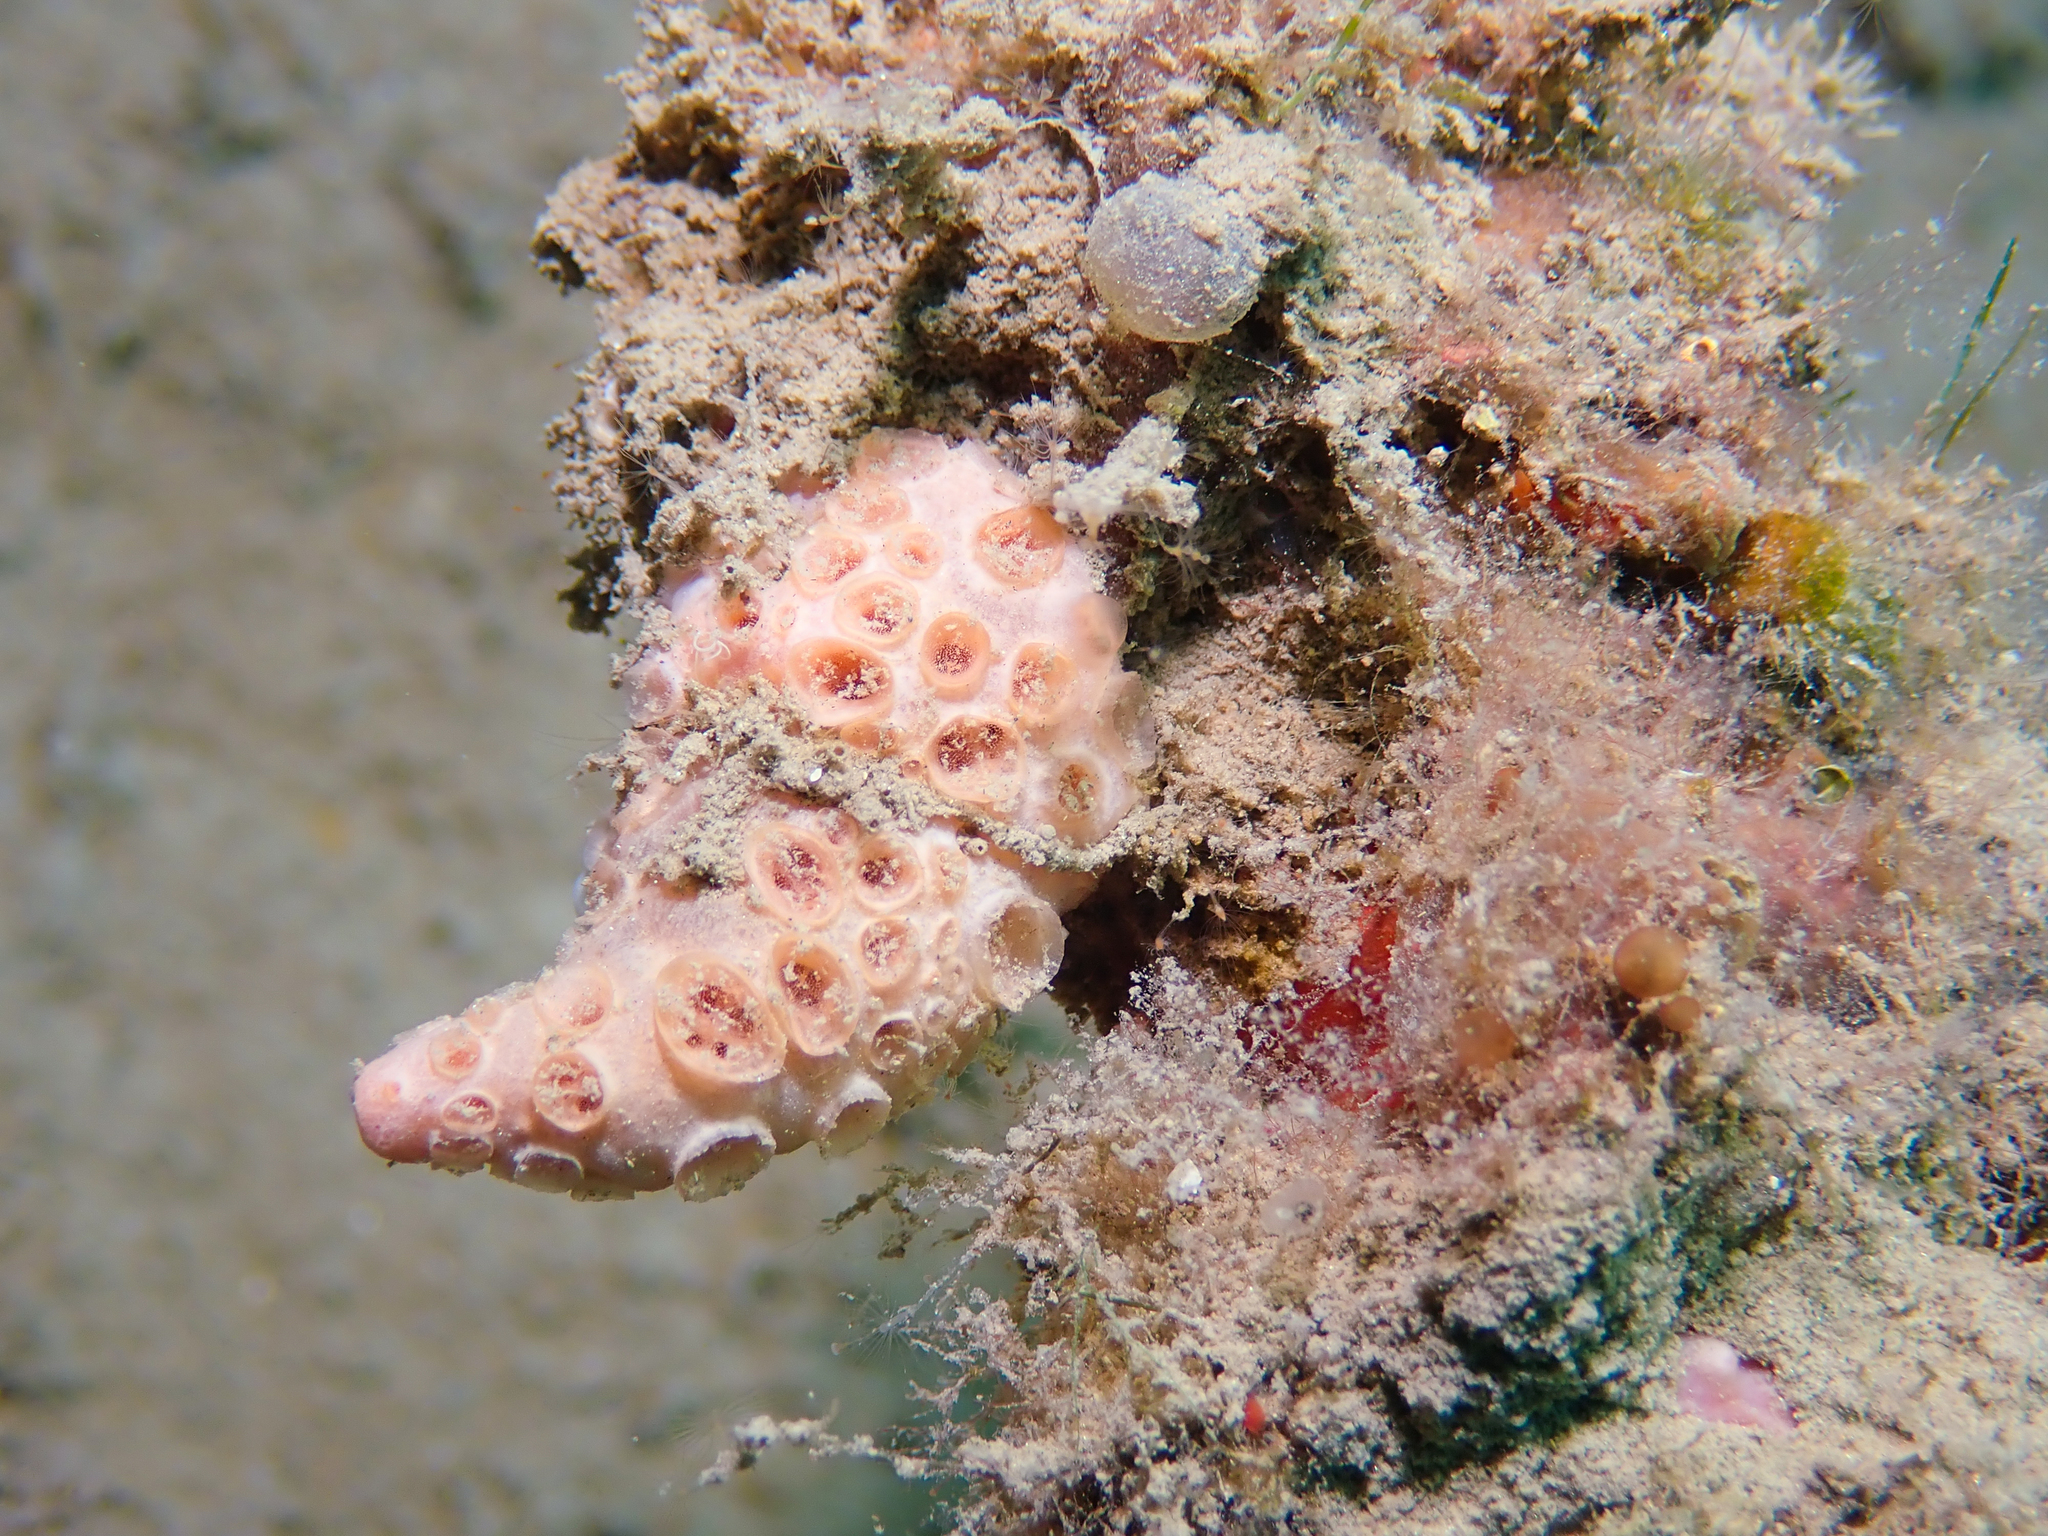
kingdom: Animalia
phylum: Porifera
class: Demospongiae
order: Poecilosclerida
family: Hymedesmiidae
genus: Hemimycale
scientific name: Hemimycale columella
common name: Crater sponge
